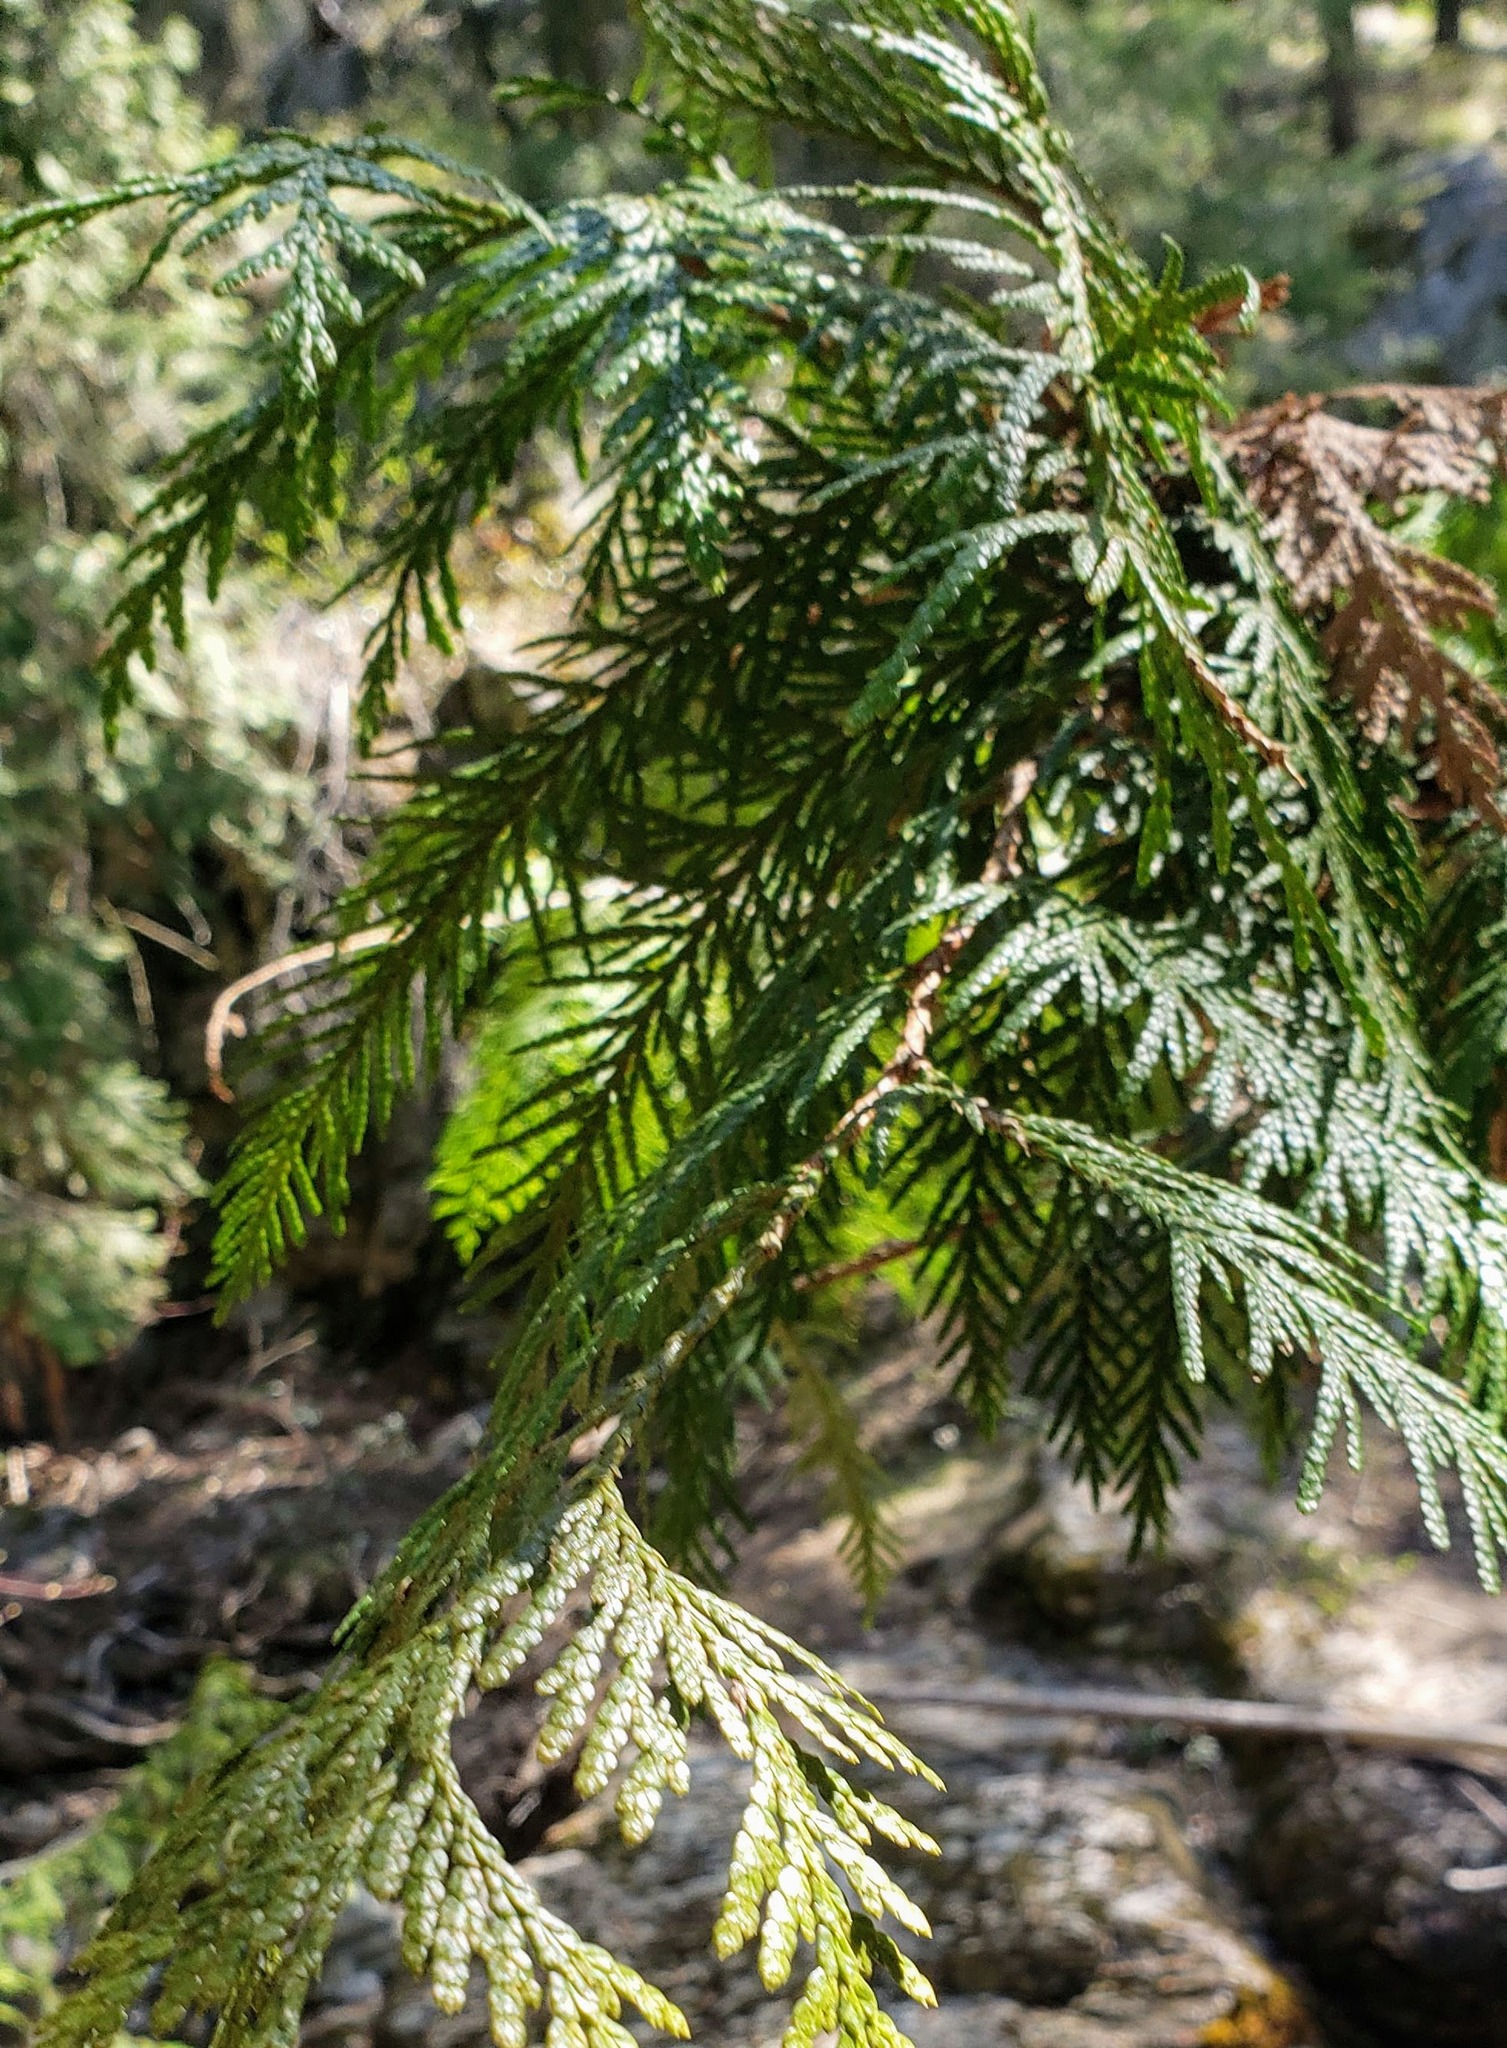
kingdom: Plantae
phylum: Tracheophyta
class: Pinopsida
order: Pinales
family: Cupressaceae
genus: Thuja
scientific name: Thuja plicata
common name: Western red-cedar
